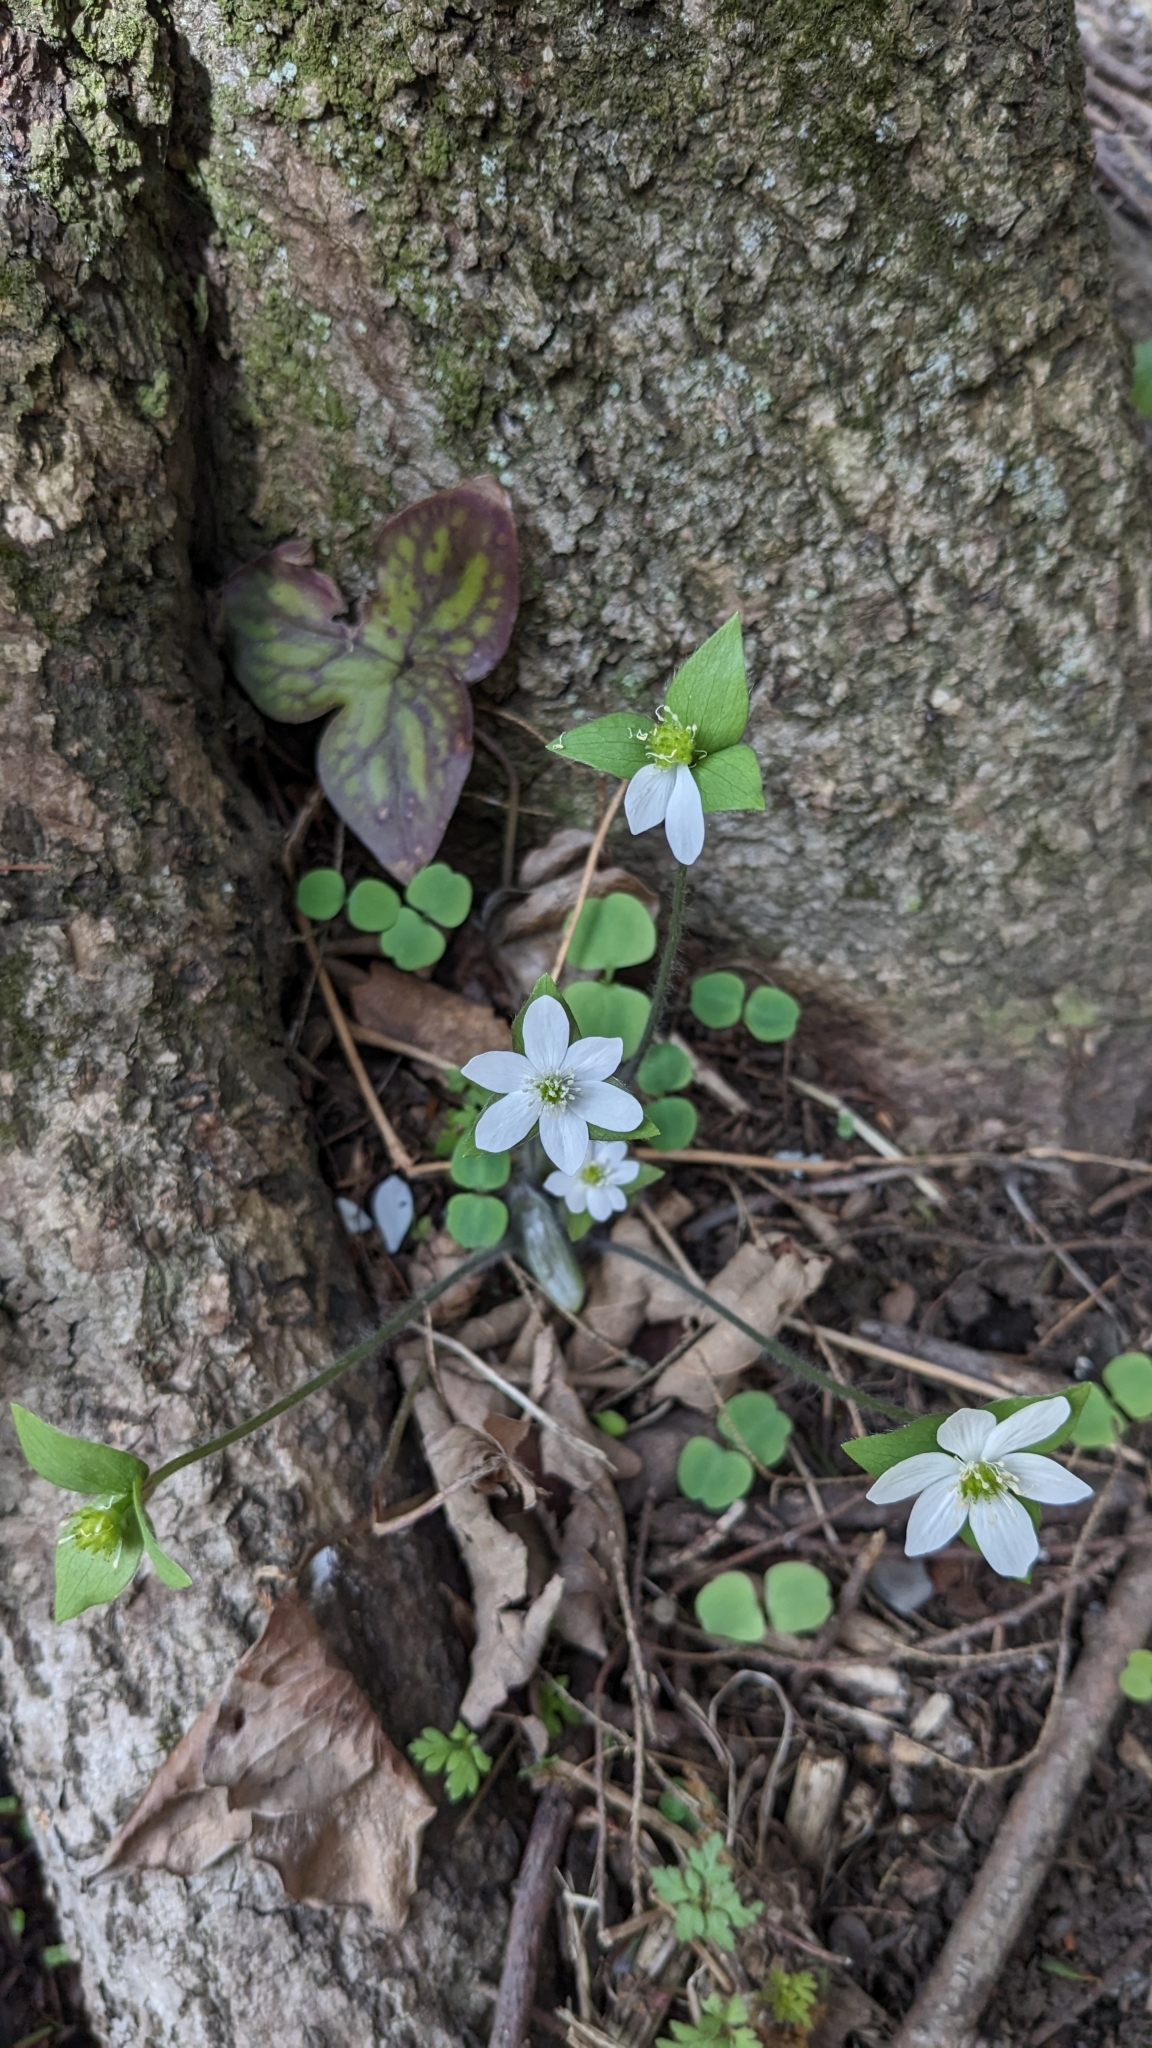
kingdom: Plantae
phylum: Tracheophyta
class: Magnoliopsida
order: Ranunculales
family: Ranunculaceae
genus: Hepatica
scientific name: Hepatica acutiloba
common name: Sharp-lobed hepatica
